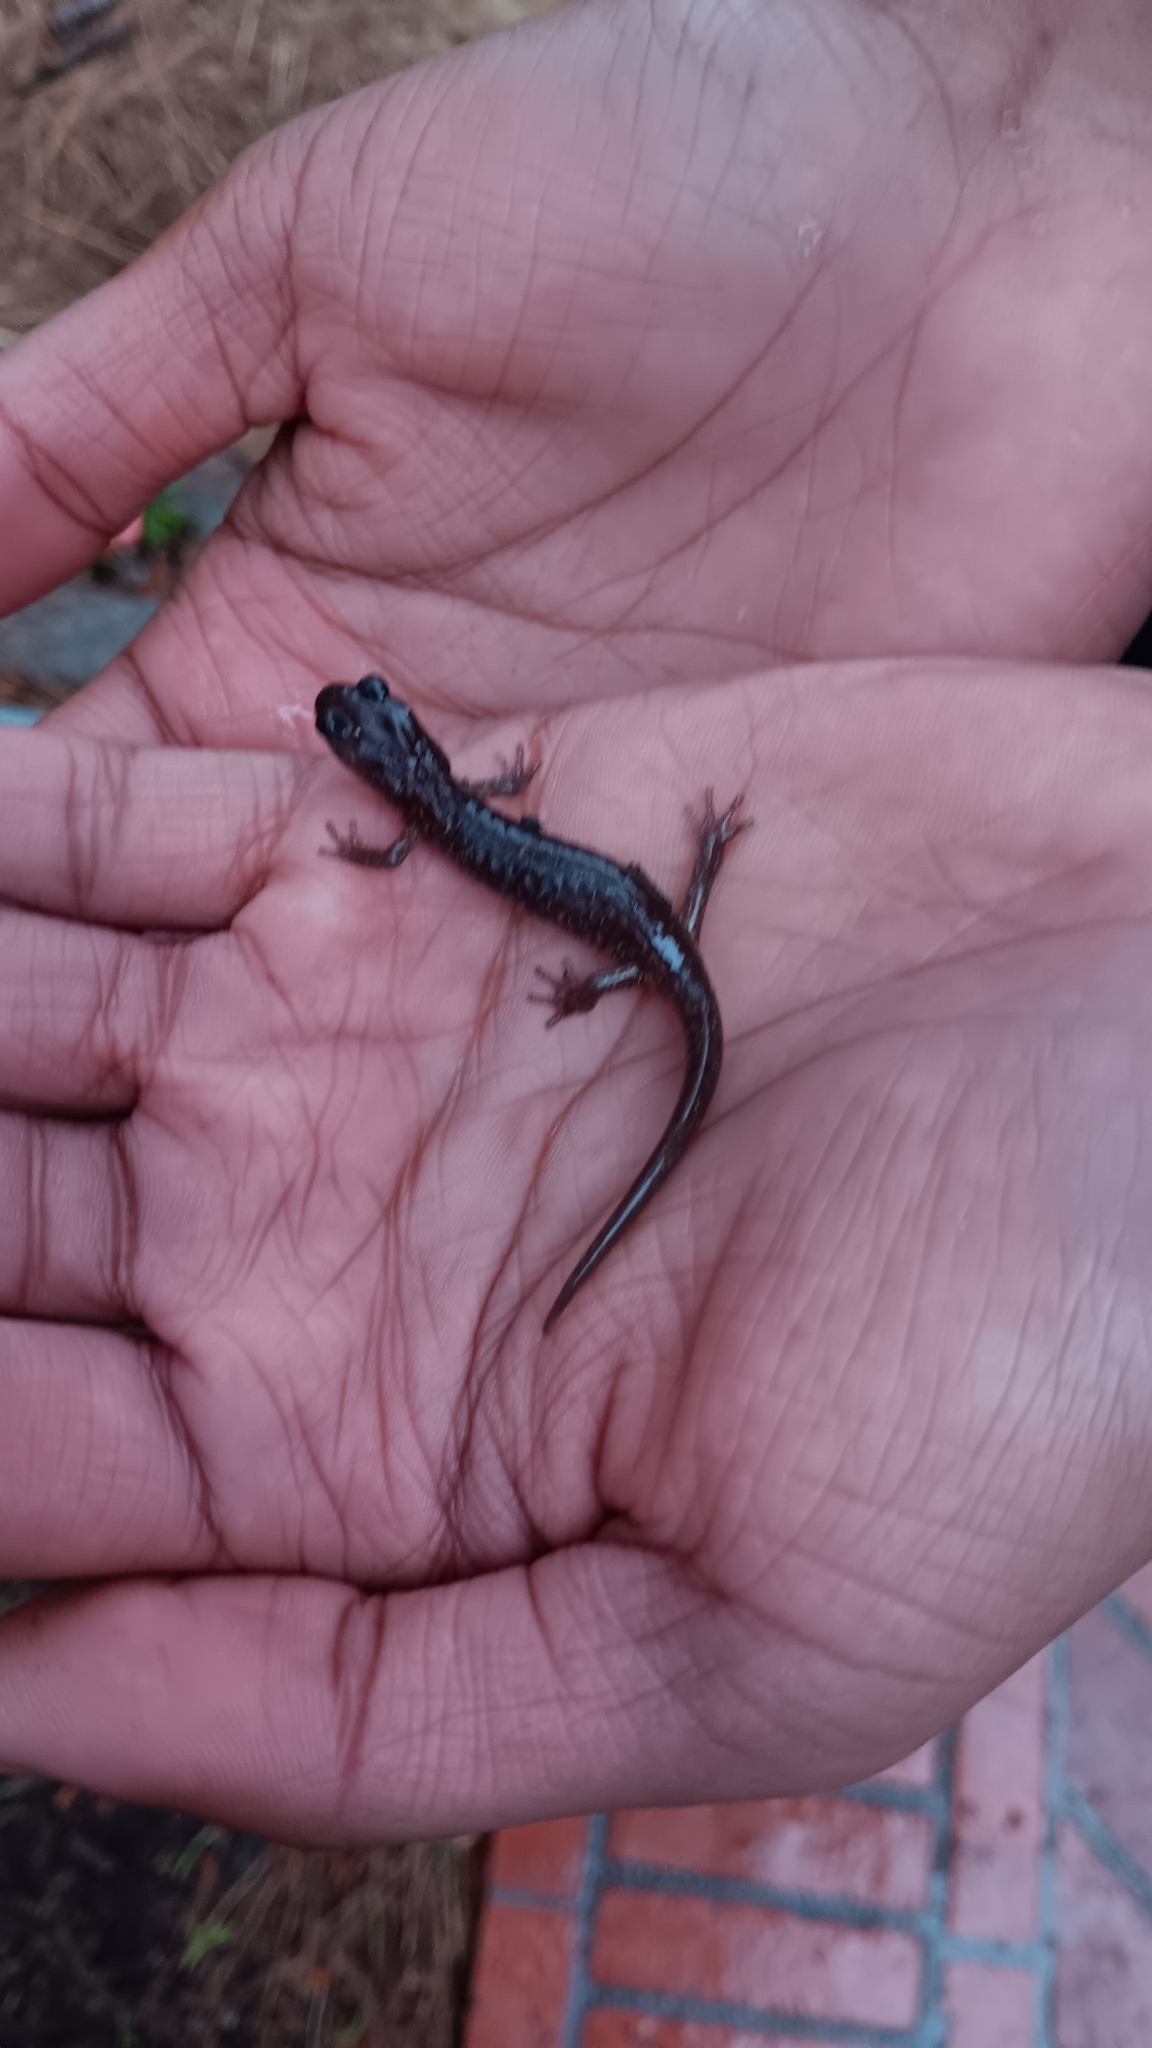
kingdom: Animalia
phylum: Chordata
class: Amphibia
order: Caudata
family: Plethodontidae
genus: Aneides
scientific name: Aneides lugubris
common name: Arboreal salamander
